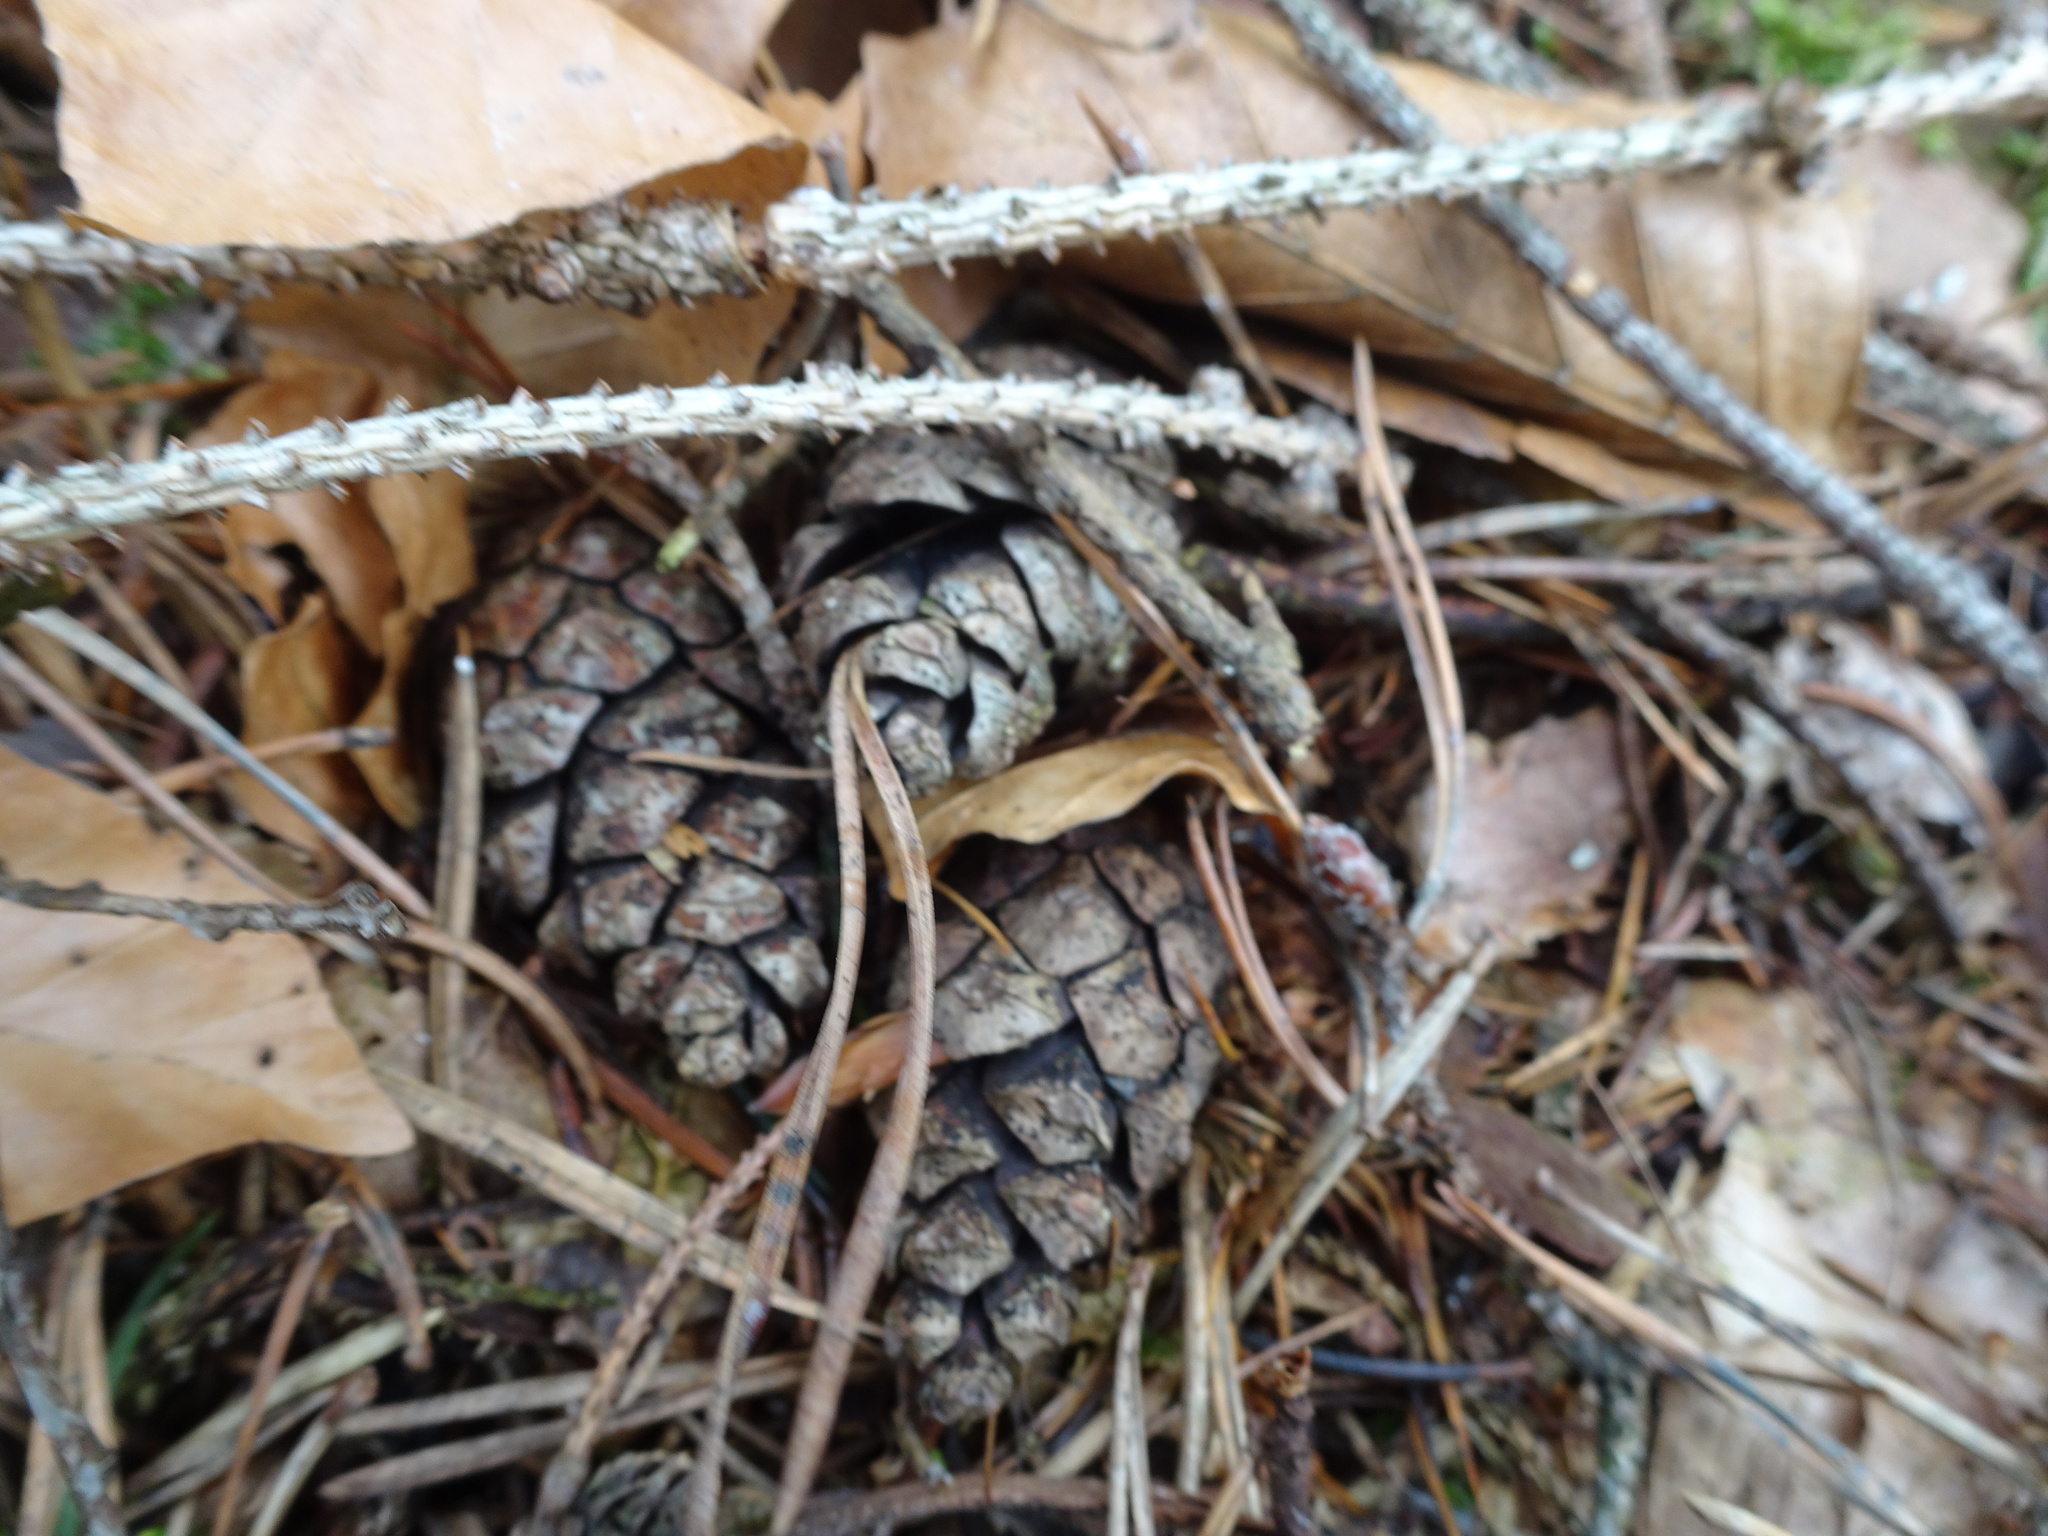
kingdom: Plantae
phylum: Tracheophyta
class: Pinopsida
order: Pinales
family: Pinaceae
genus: Pinus
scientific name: Pinus sylvestris
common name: Scots pine
